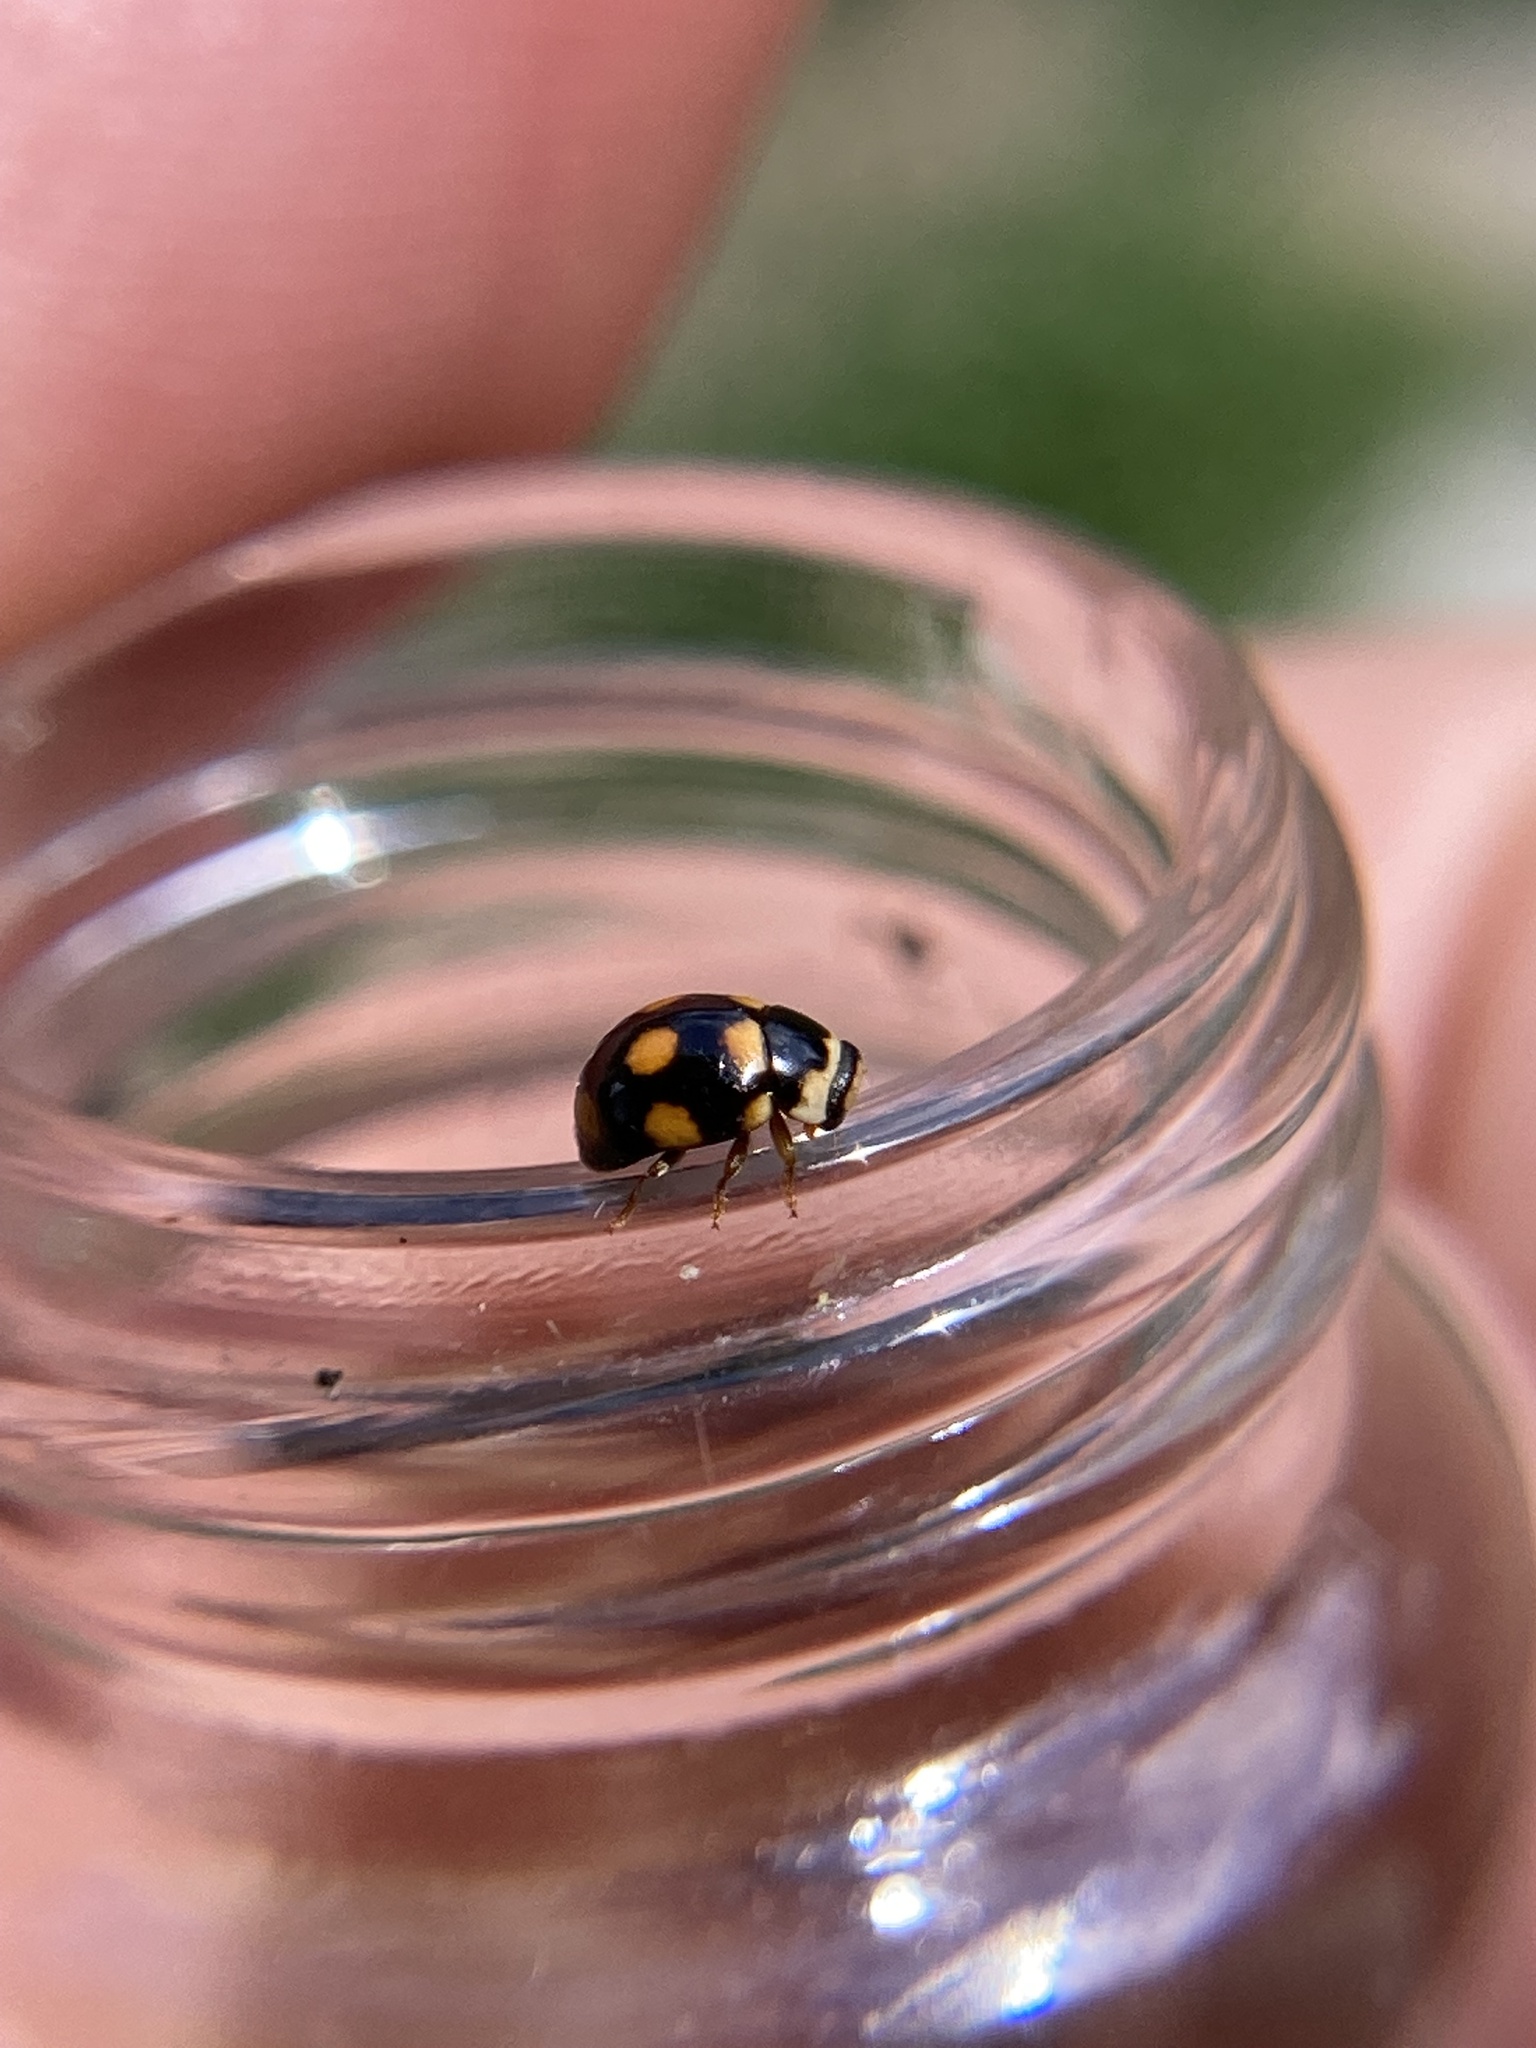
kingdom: Animalia
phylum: Arthropoda
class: Insecta
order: Coleoptera
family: Coccinellidae
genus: Brachiacantha
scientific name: Brachiacantha ursina
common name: Ursine spurleg lady beetle
